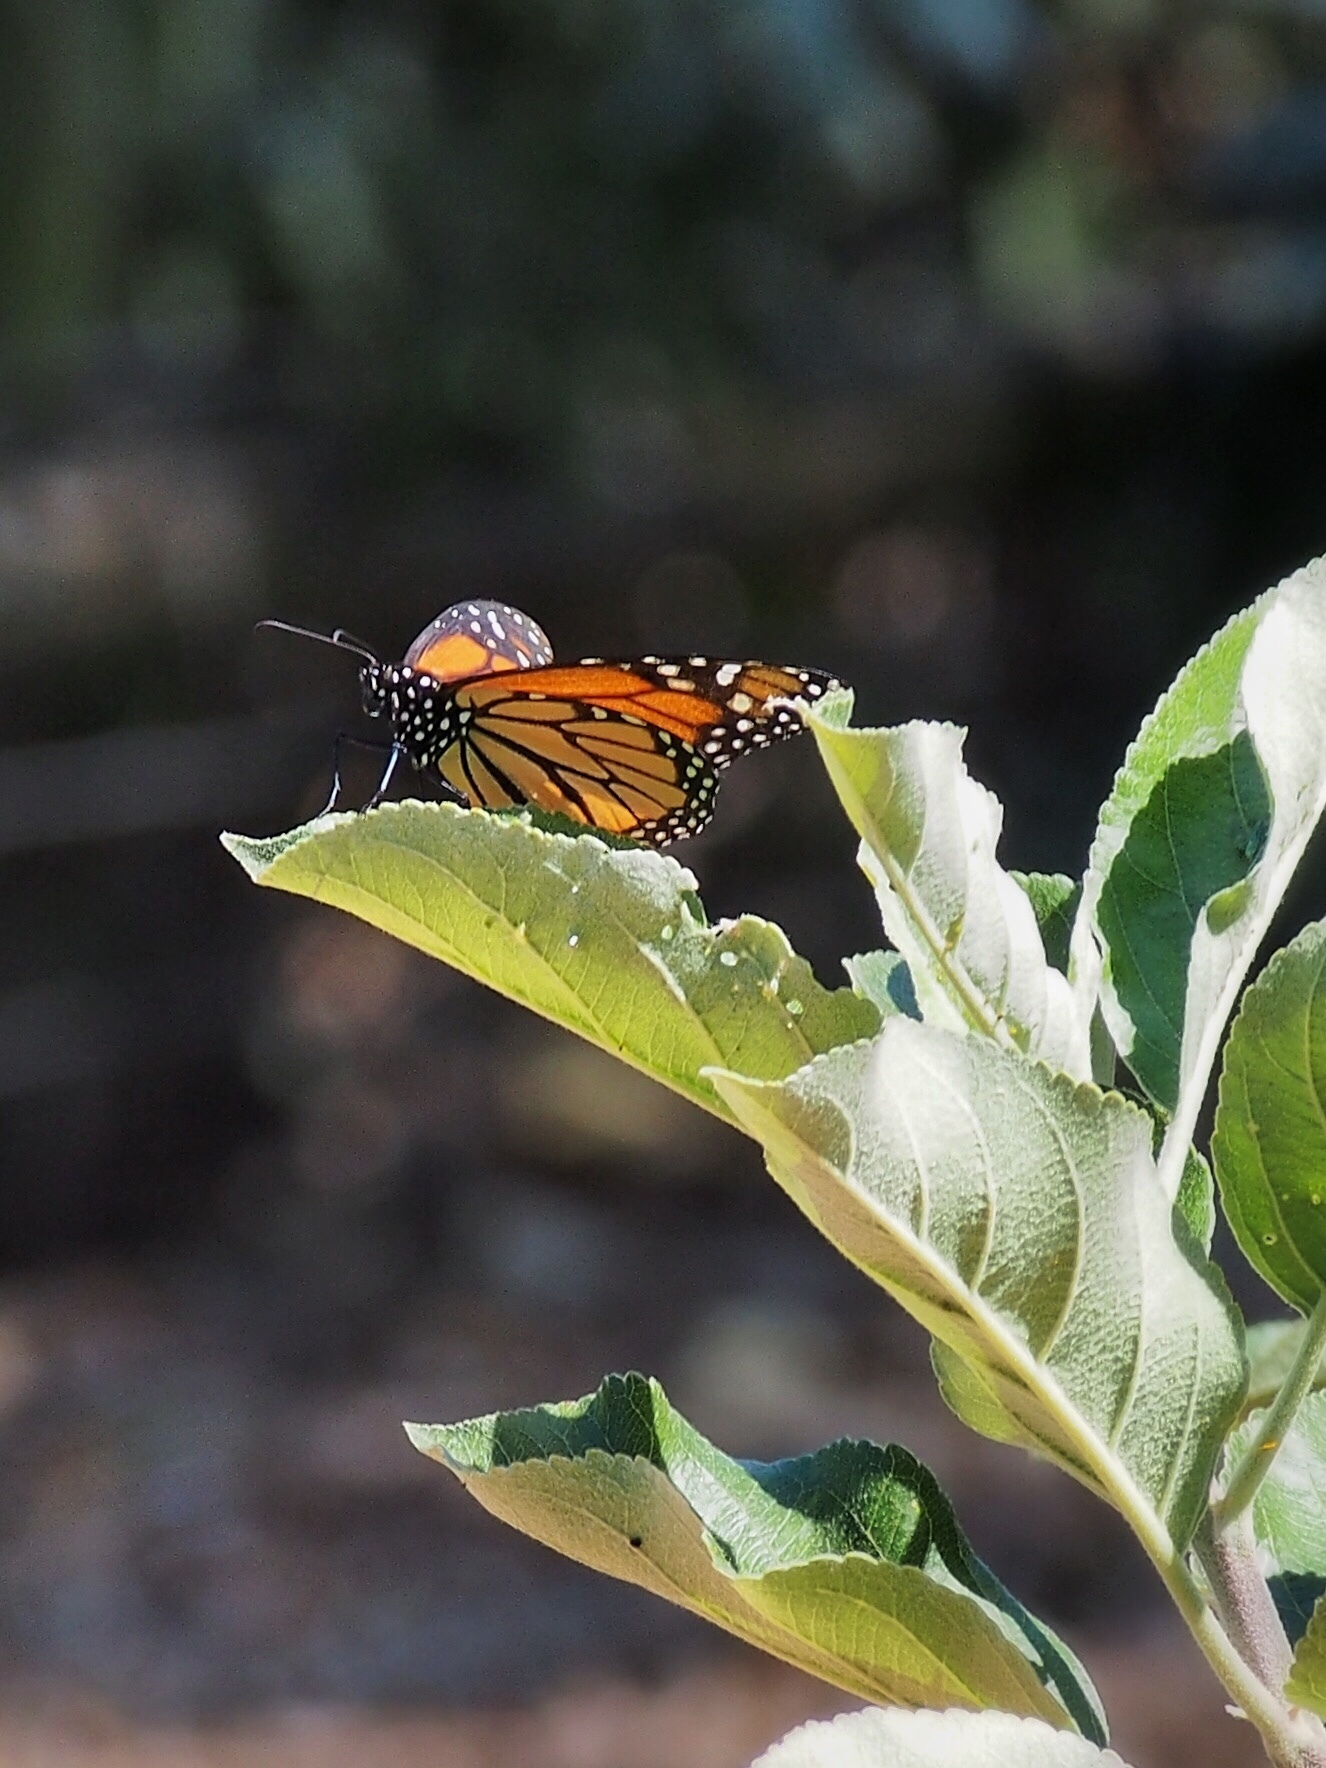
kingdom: Animalia
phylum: Arthropoda
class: Insecta
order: Lepidoptera
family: Nymphalidae
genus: Danaus
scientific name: Danaus plexippus
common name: Monarch
